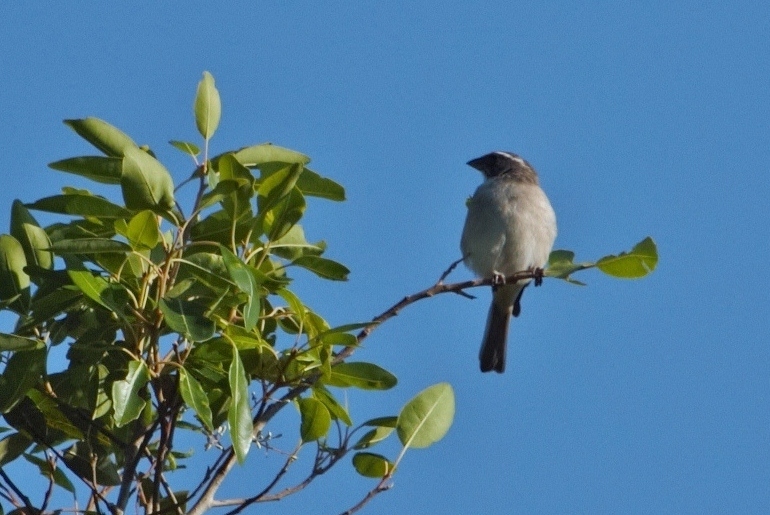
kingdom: Animalia
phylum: Chordata
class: Aves
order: Passeriformes
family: Fringillidae
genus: Crithagra
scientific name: Crithagra gularis
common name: Streaky-headed seedeater
